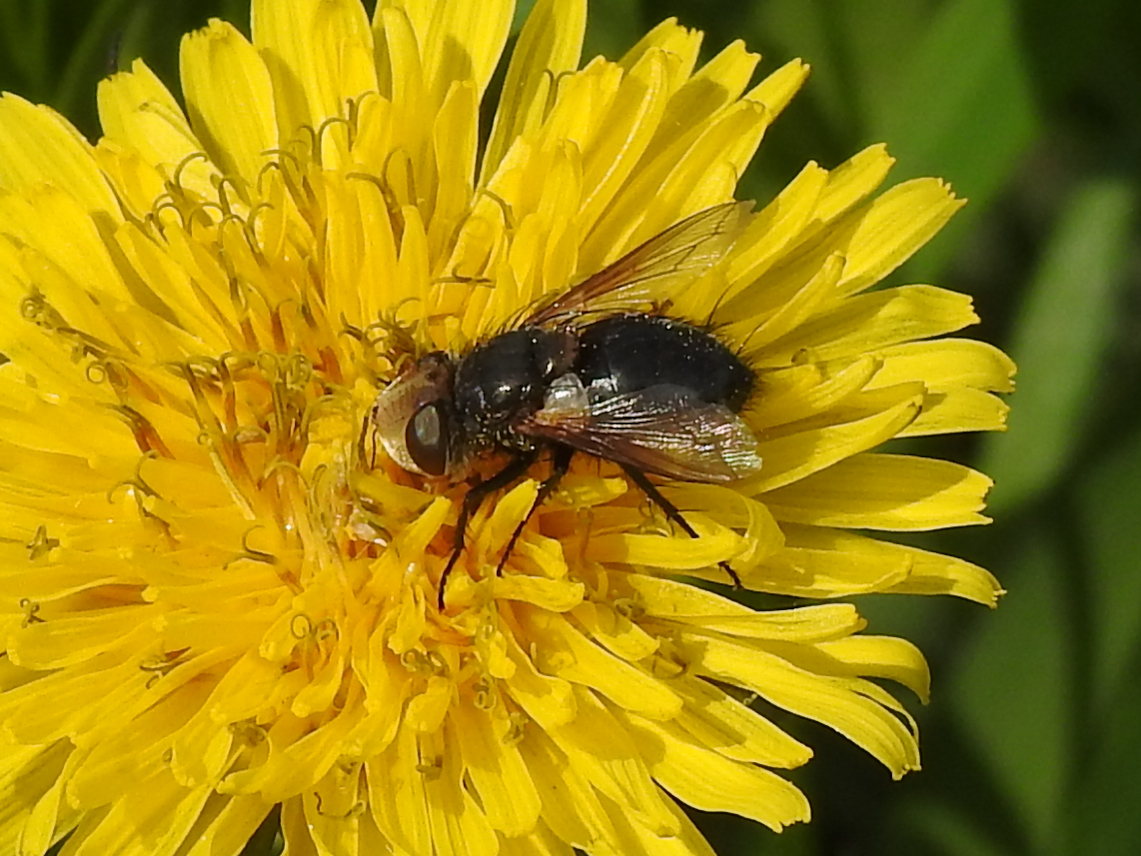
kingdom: Animalia
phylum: Arthropoda
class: Insecta
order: Diptera
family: Tachinidae
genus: Epalpus
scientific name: Epalpus signifer
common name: Early tachinid fly
